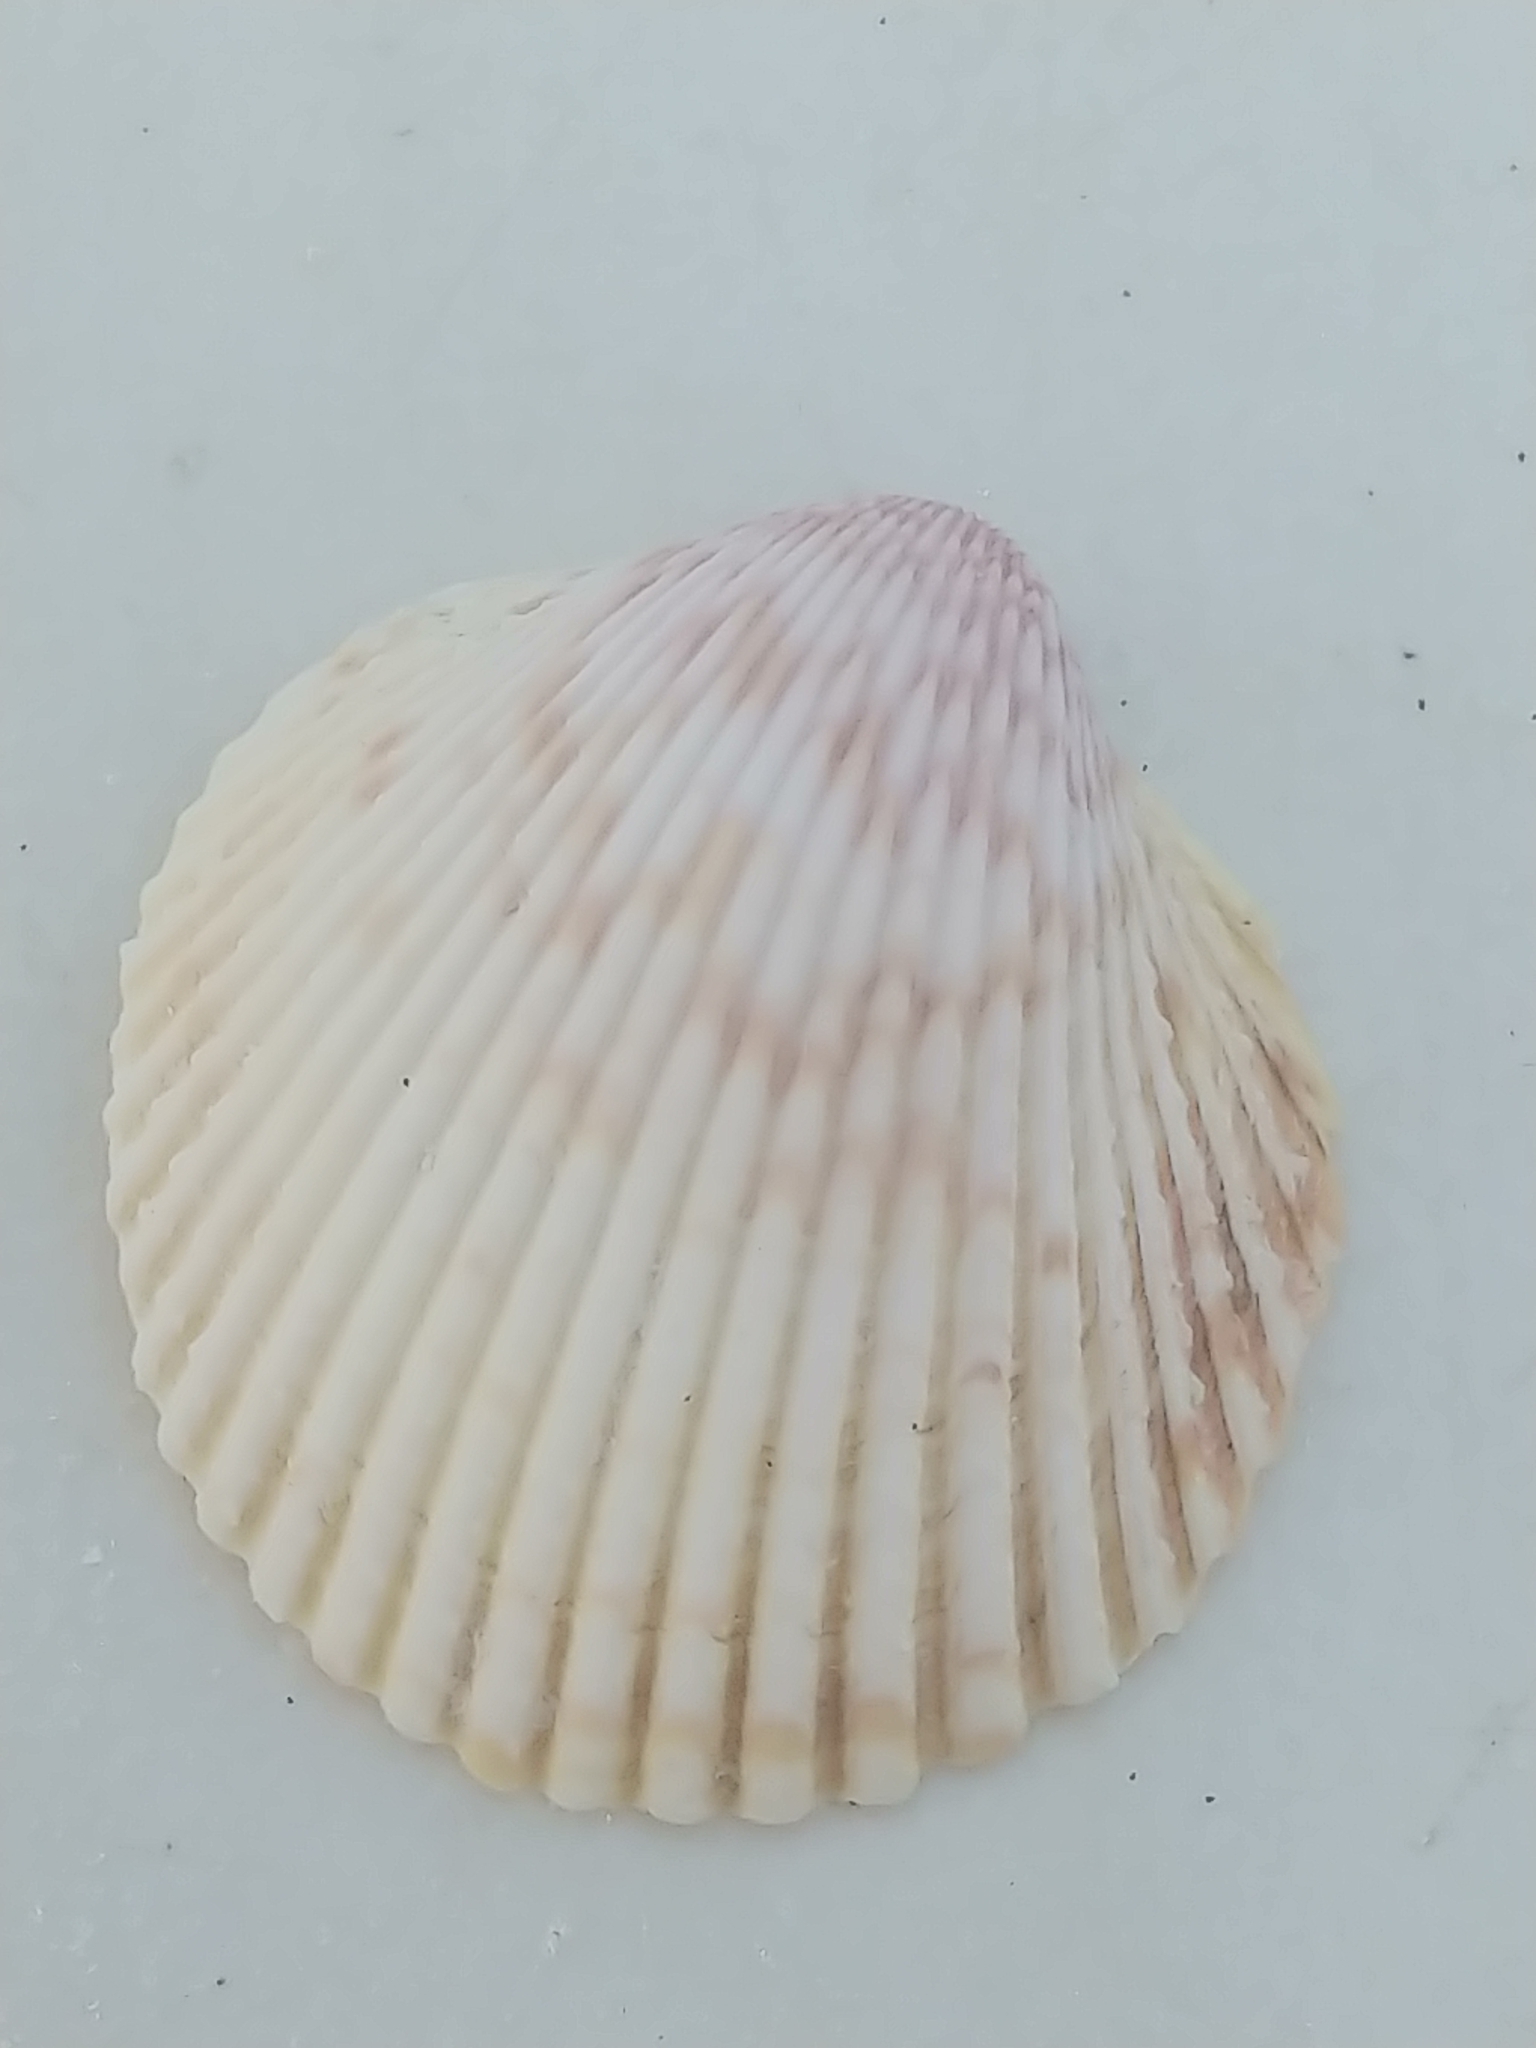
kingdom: Animalia
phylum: Mollusca
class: Bivalvia
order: Cardiida
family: Cardiidae
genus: Dallocardia
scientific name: Dallocardia muricata
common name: Yellow pricklycockle
